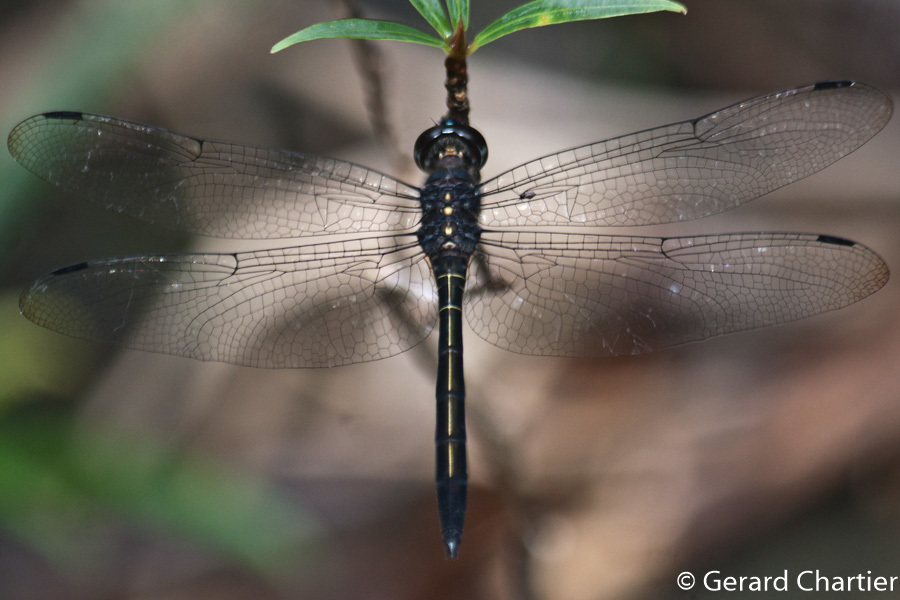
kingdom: Animalia
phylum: Arthropoda
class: Insecta
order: Odonata
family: Libellulidae
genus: Zygonyx
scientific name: Zygonyx iris
